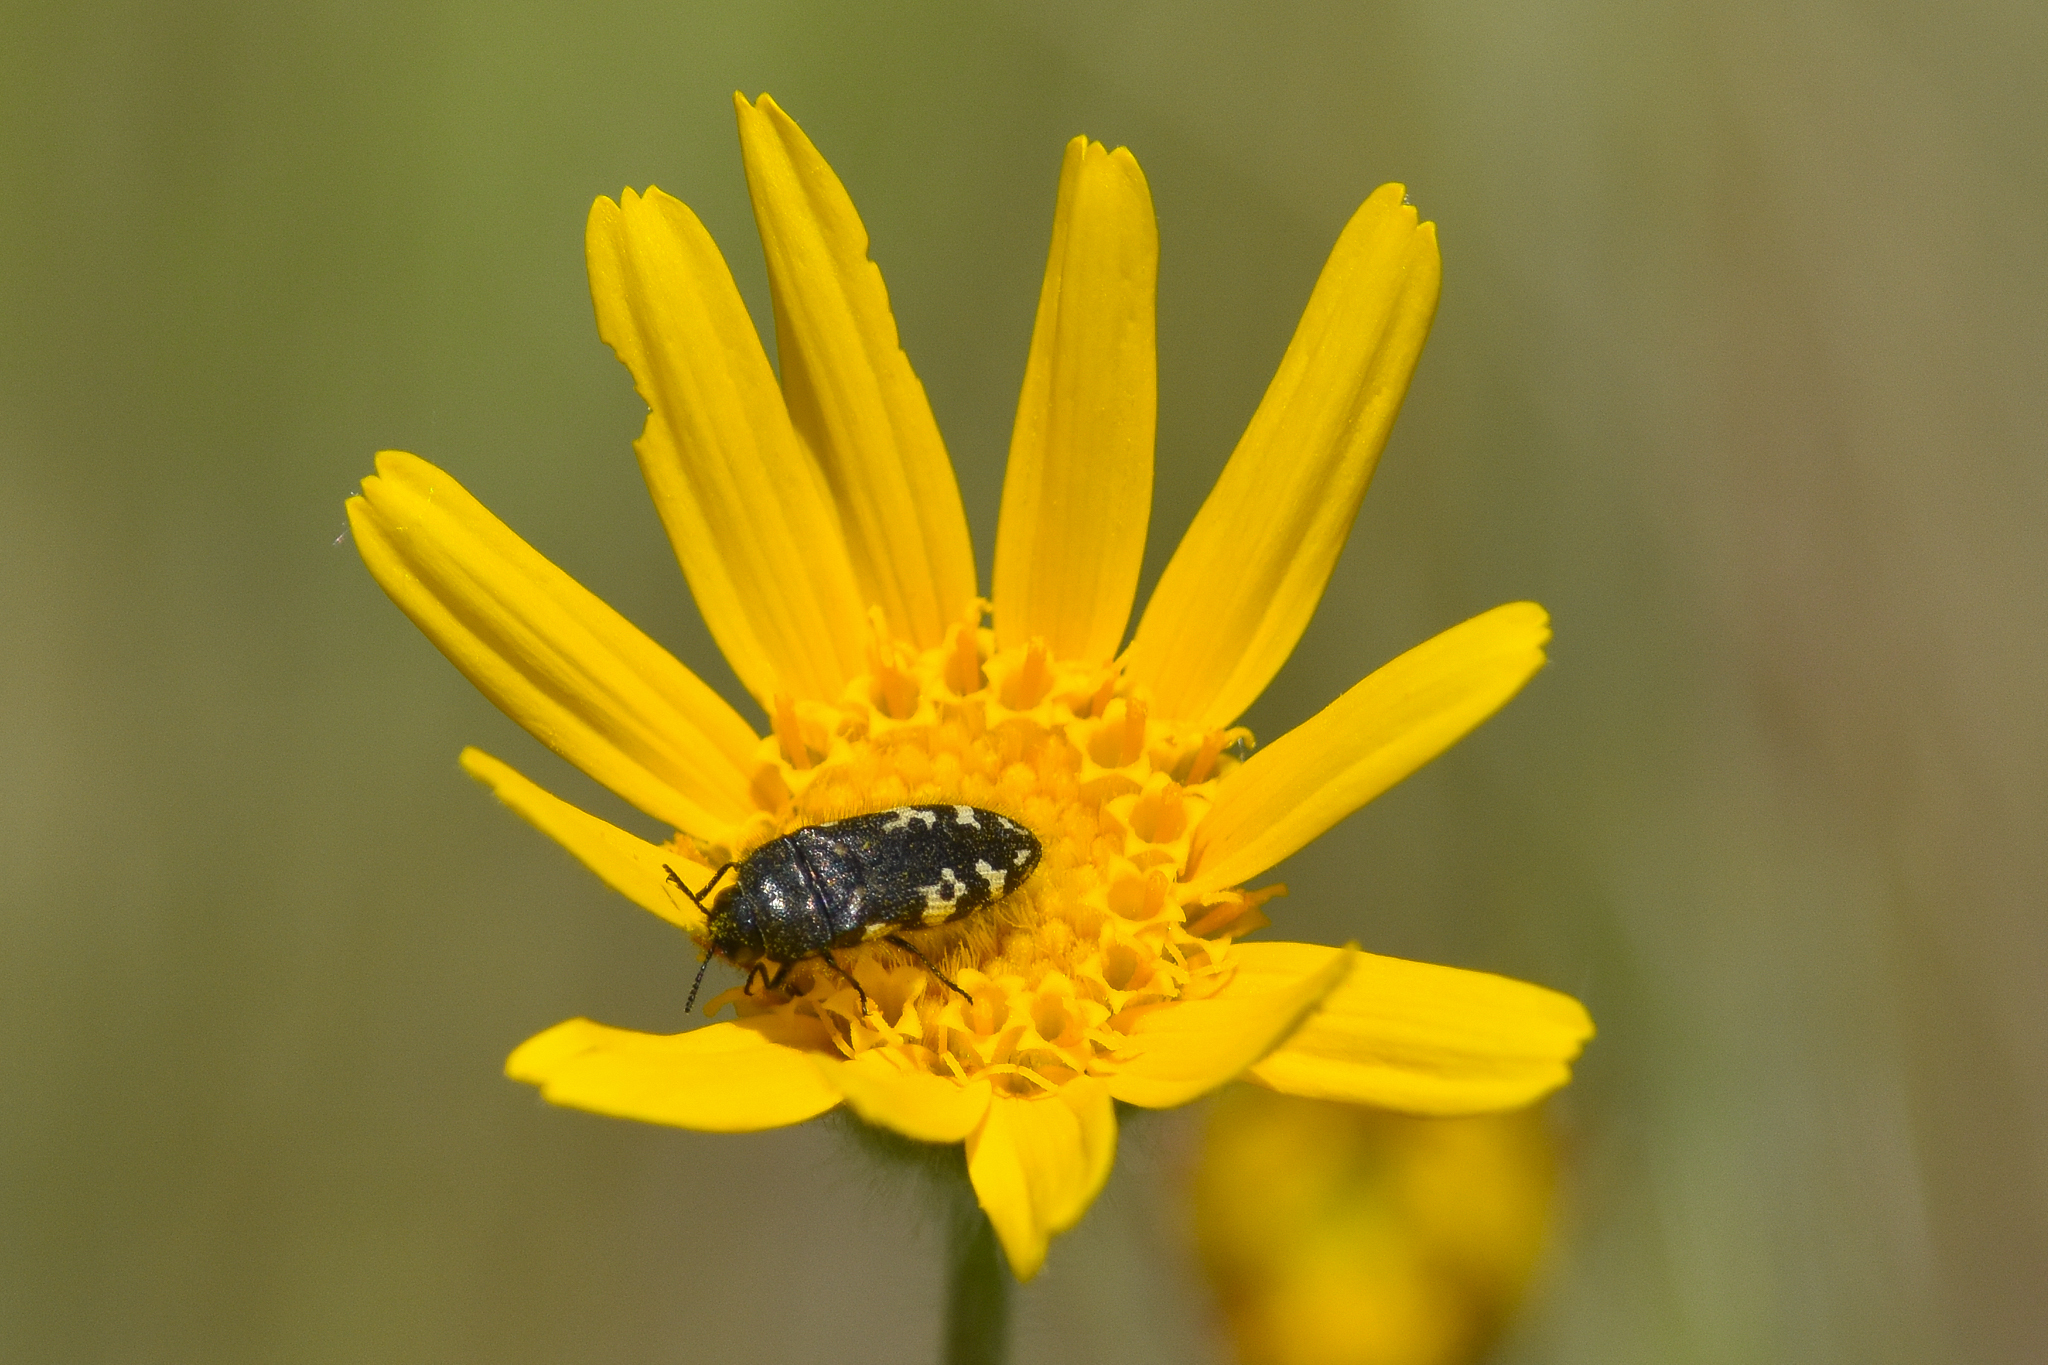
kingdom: Animalia
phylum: Arthropoda
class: Insecta
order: Coleoptera
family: Buprestidae
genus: Acmaeodera
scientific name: Acmaeodera idahoensis
